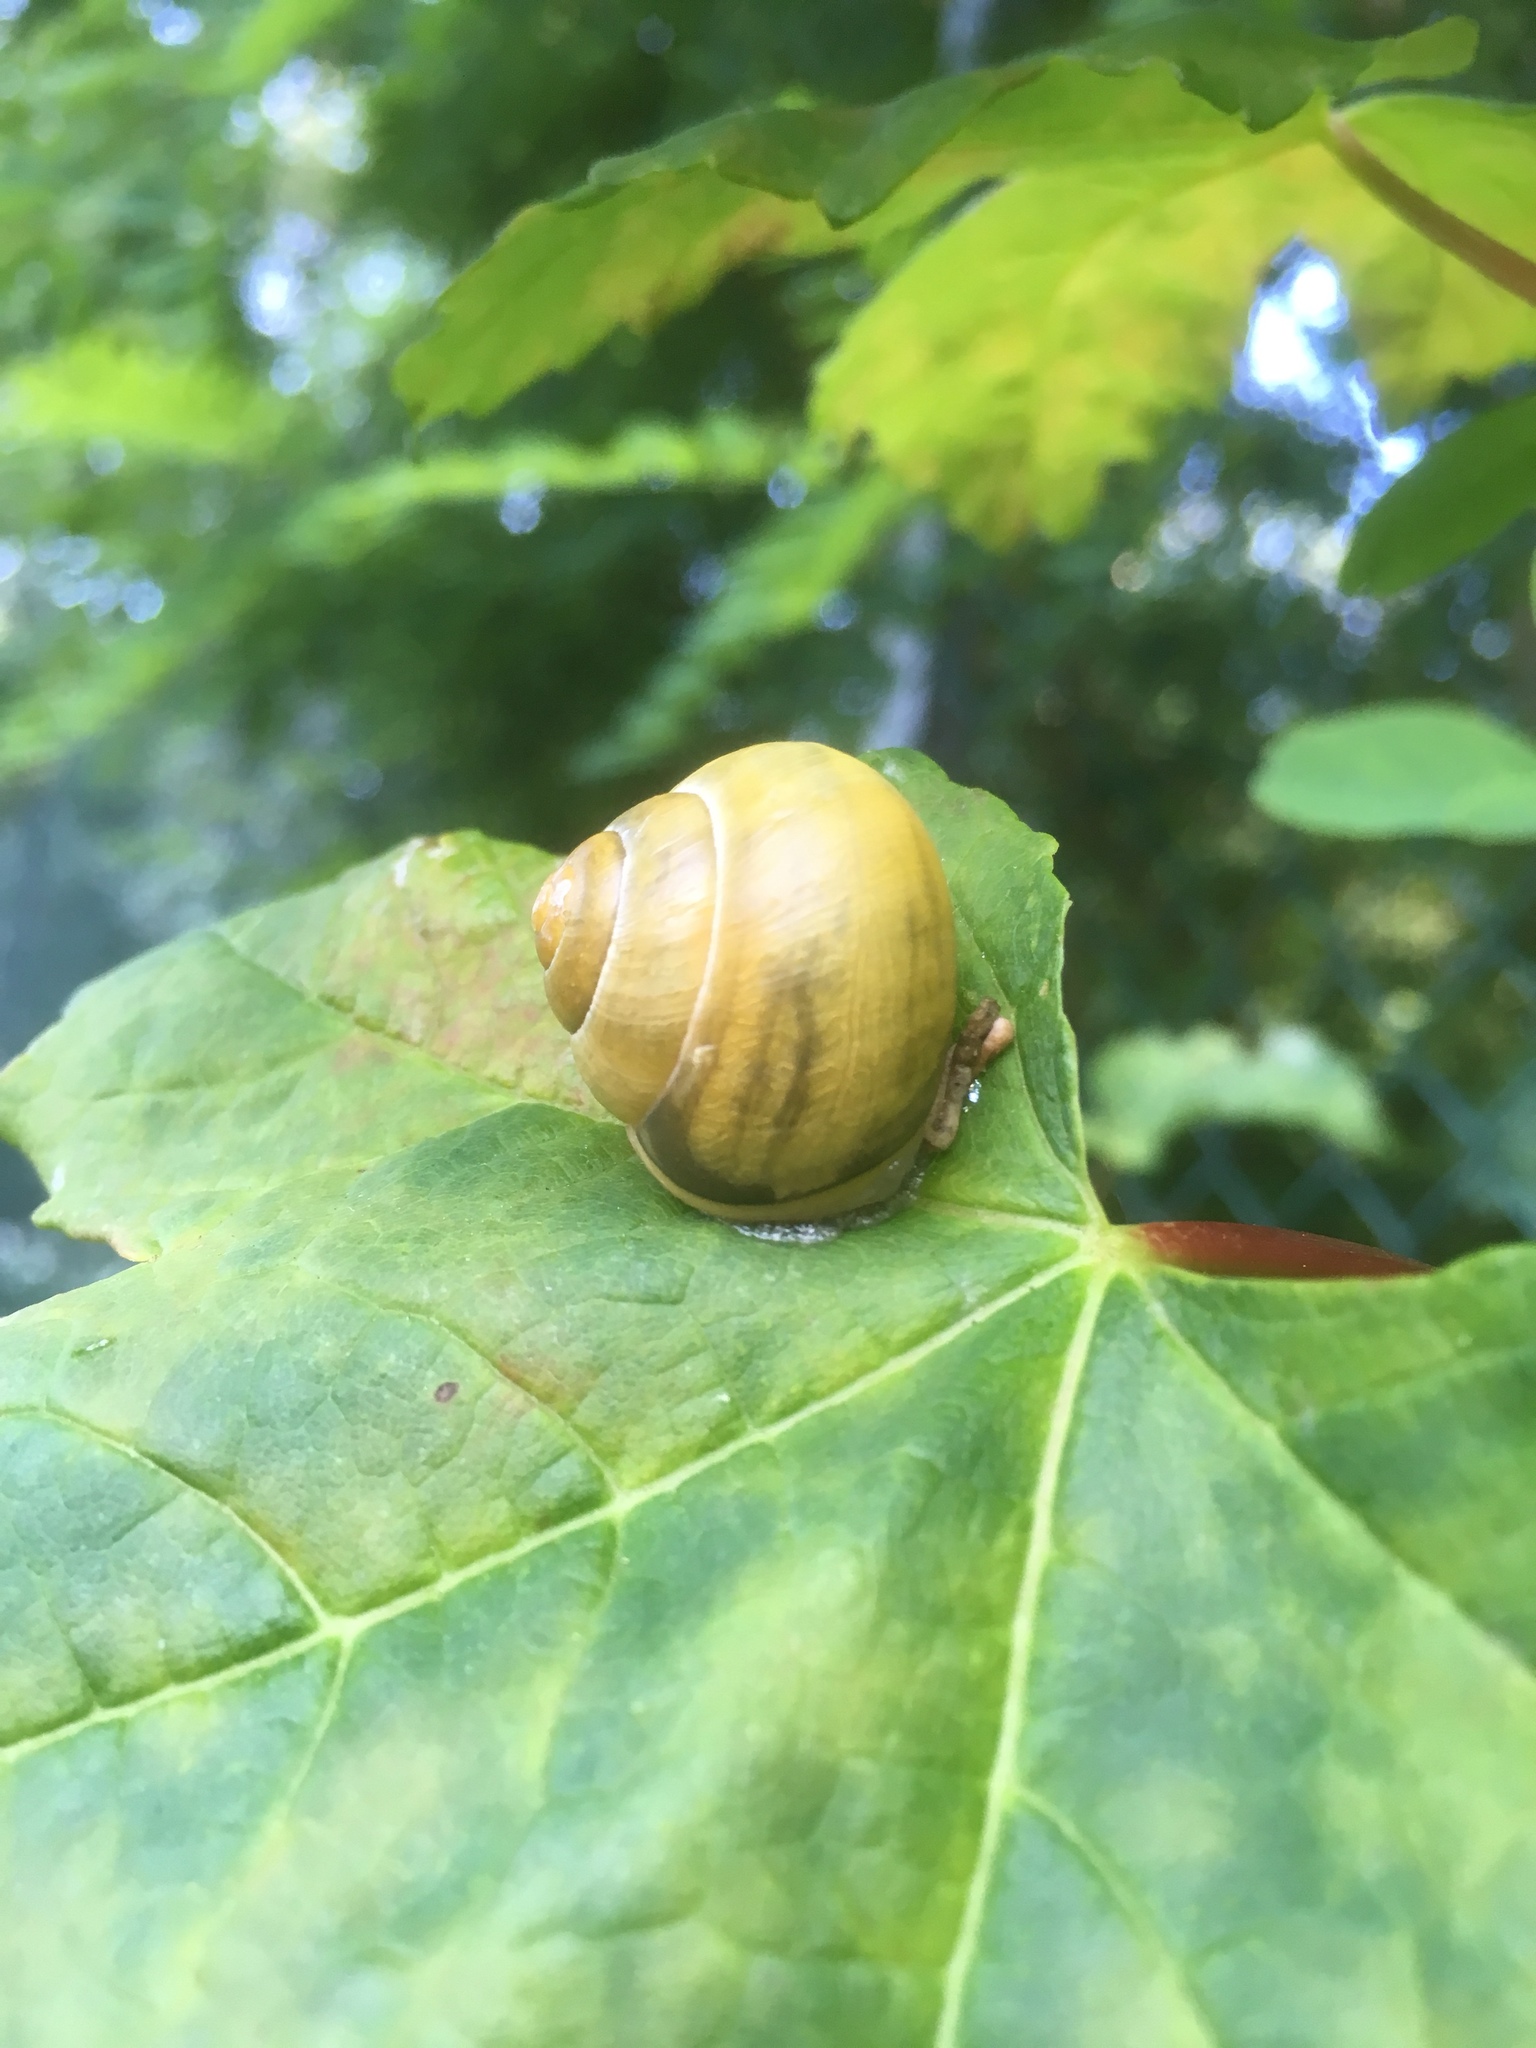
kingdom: Animalia
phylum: Mollusca
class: Gastropoda
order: Stylommatophora
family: Helicidae
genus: Cepaea
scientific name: Cepaea hortensis
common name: White-lip gardensnail
